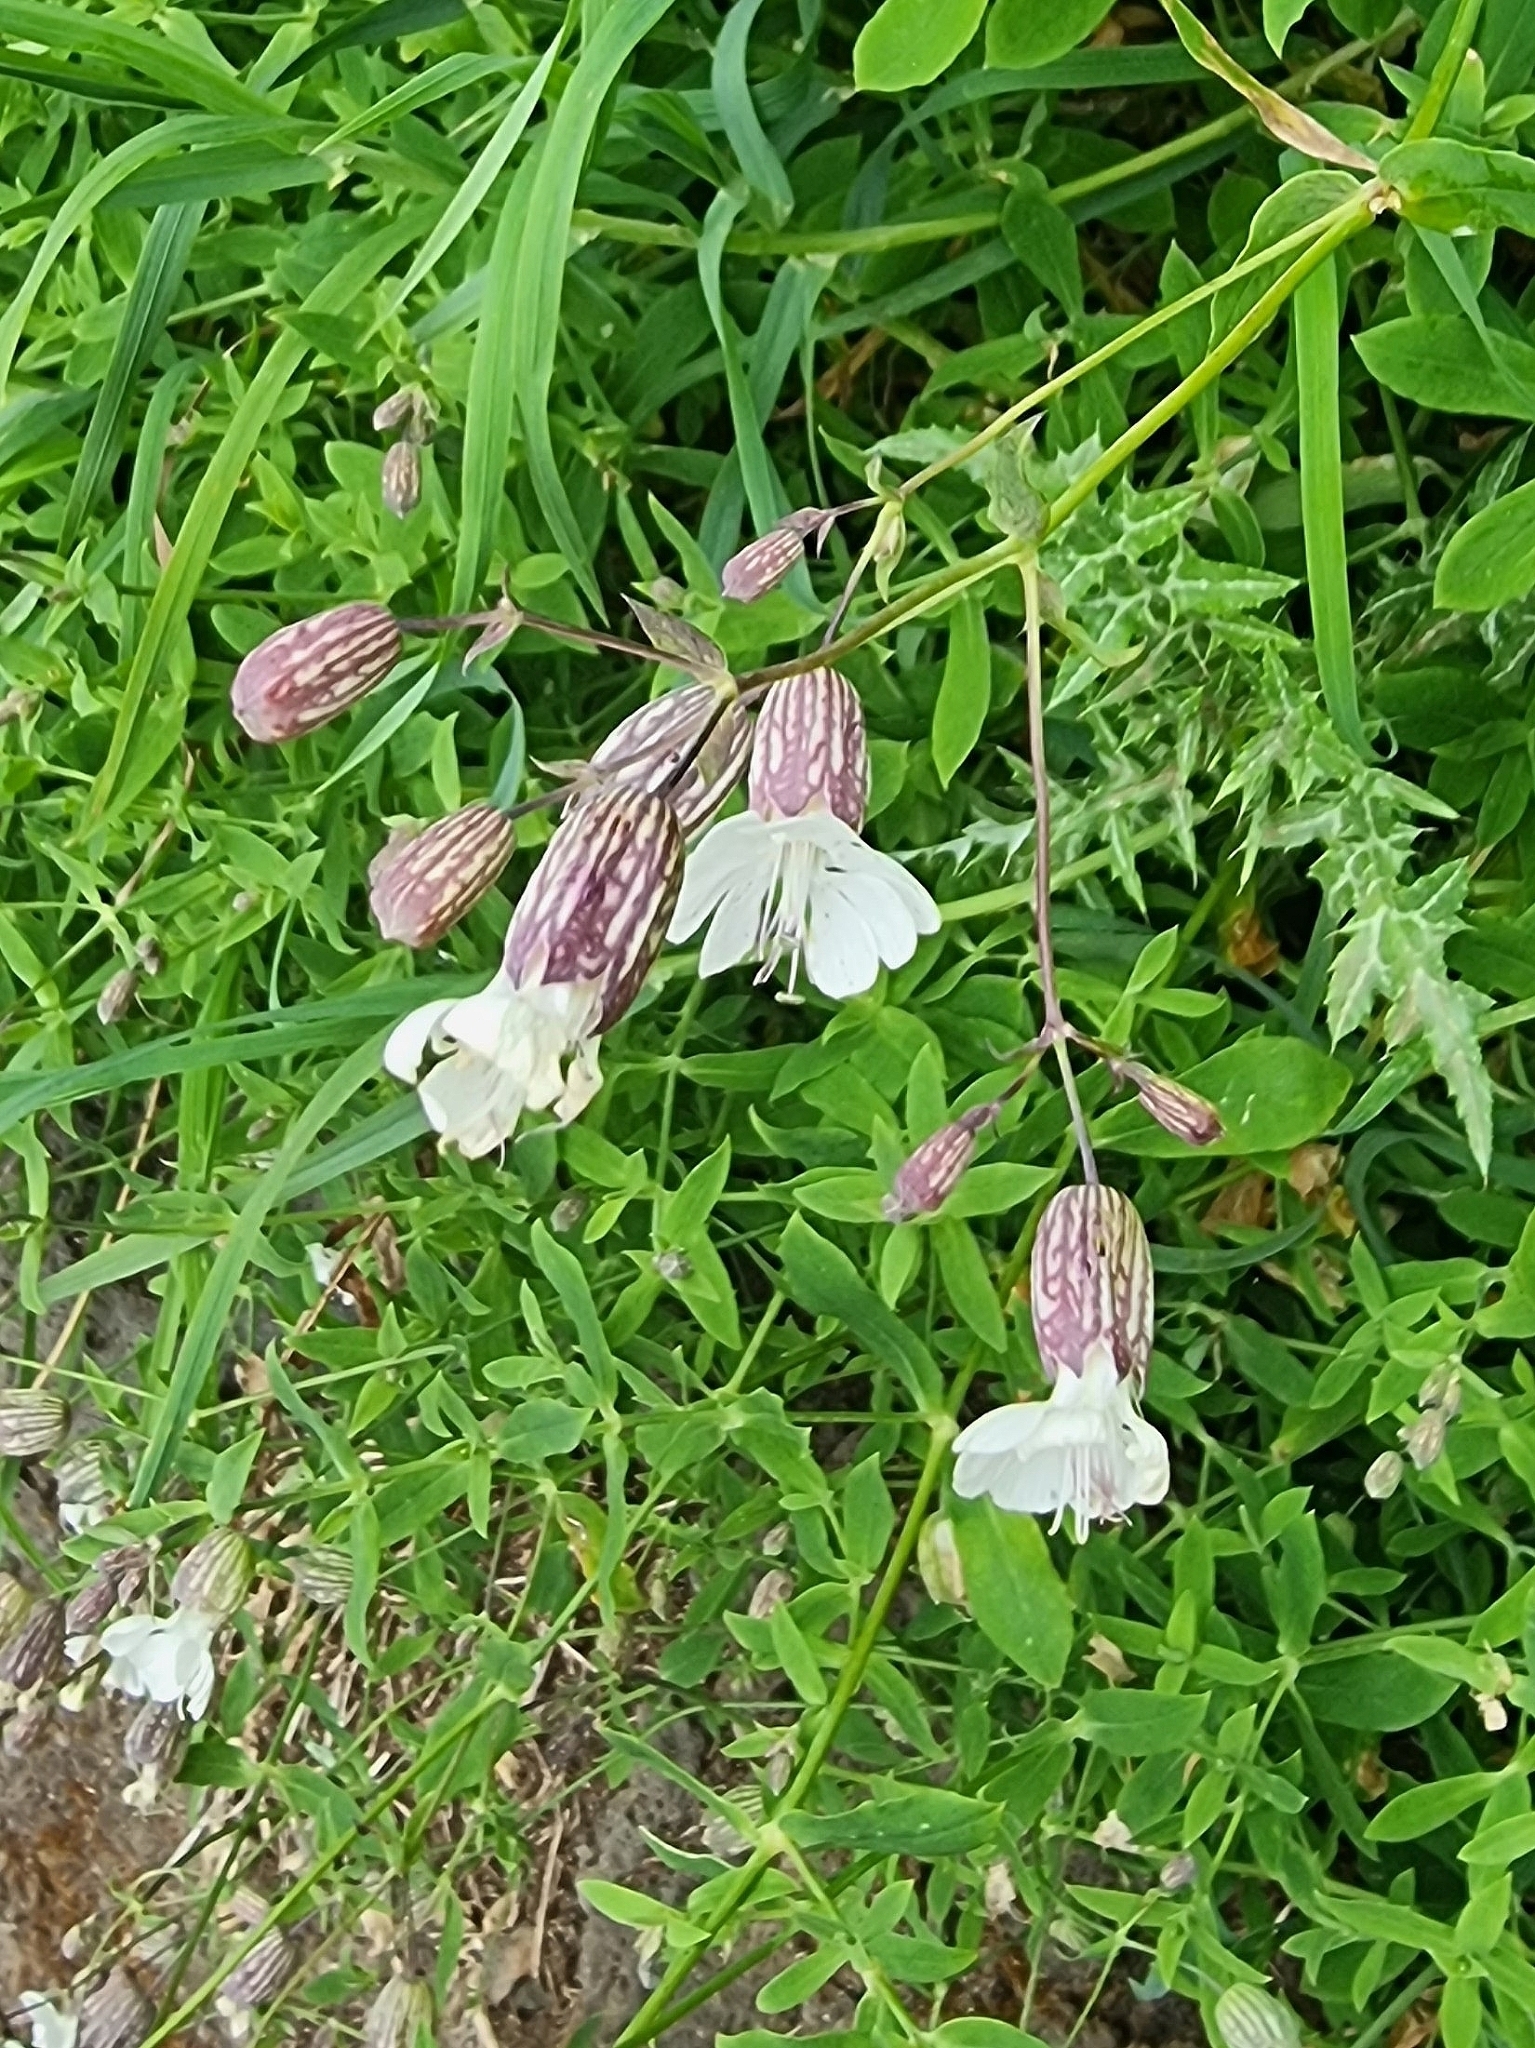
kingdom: Plantae
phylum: Tracheophyta
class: Magnoliopsida
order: Caryophyllales
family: Caryophyllaceae
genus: Silene
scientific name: Silene vulgaris
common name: Bladder campion
